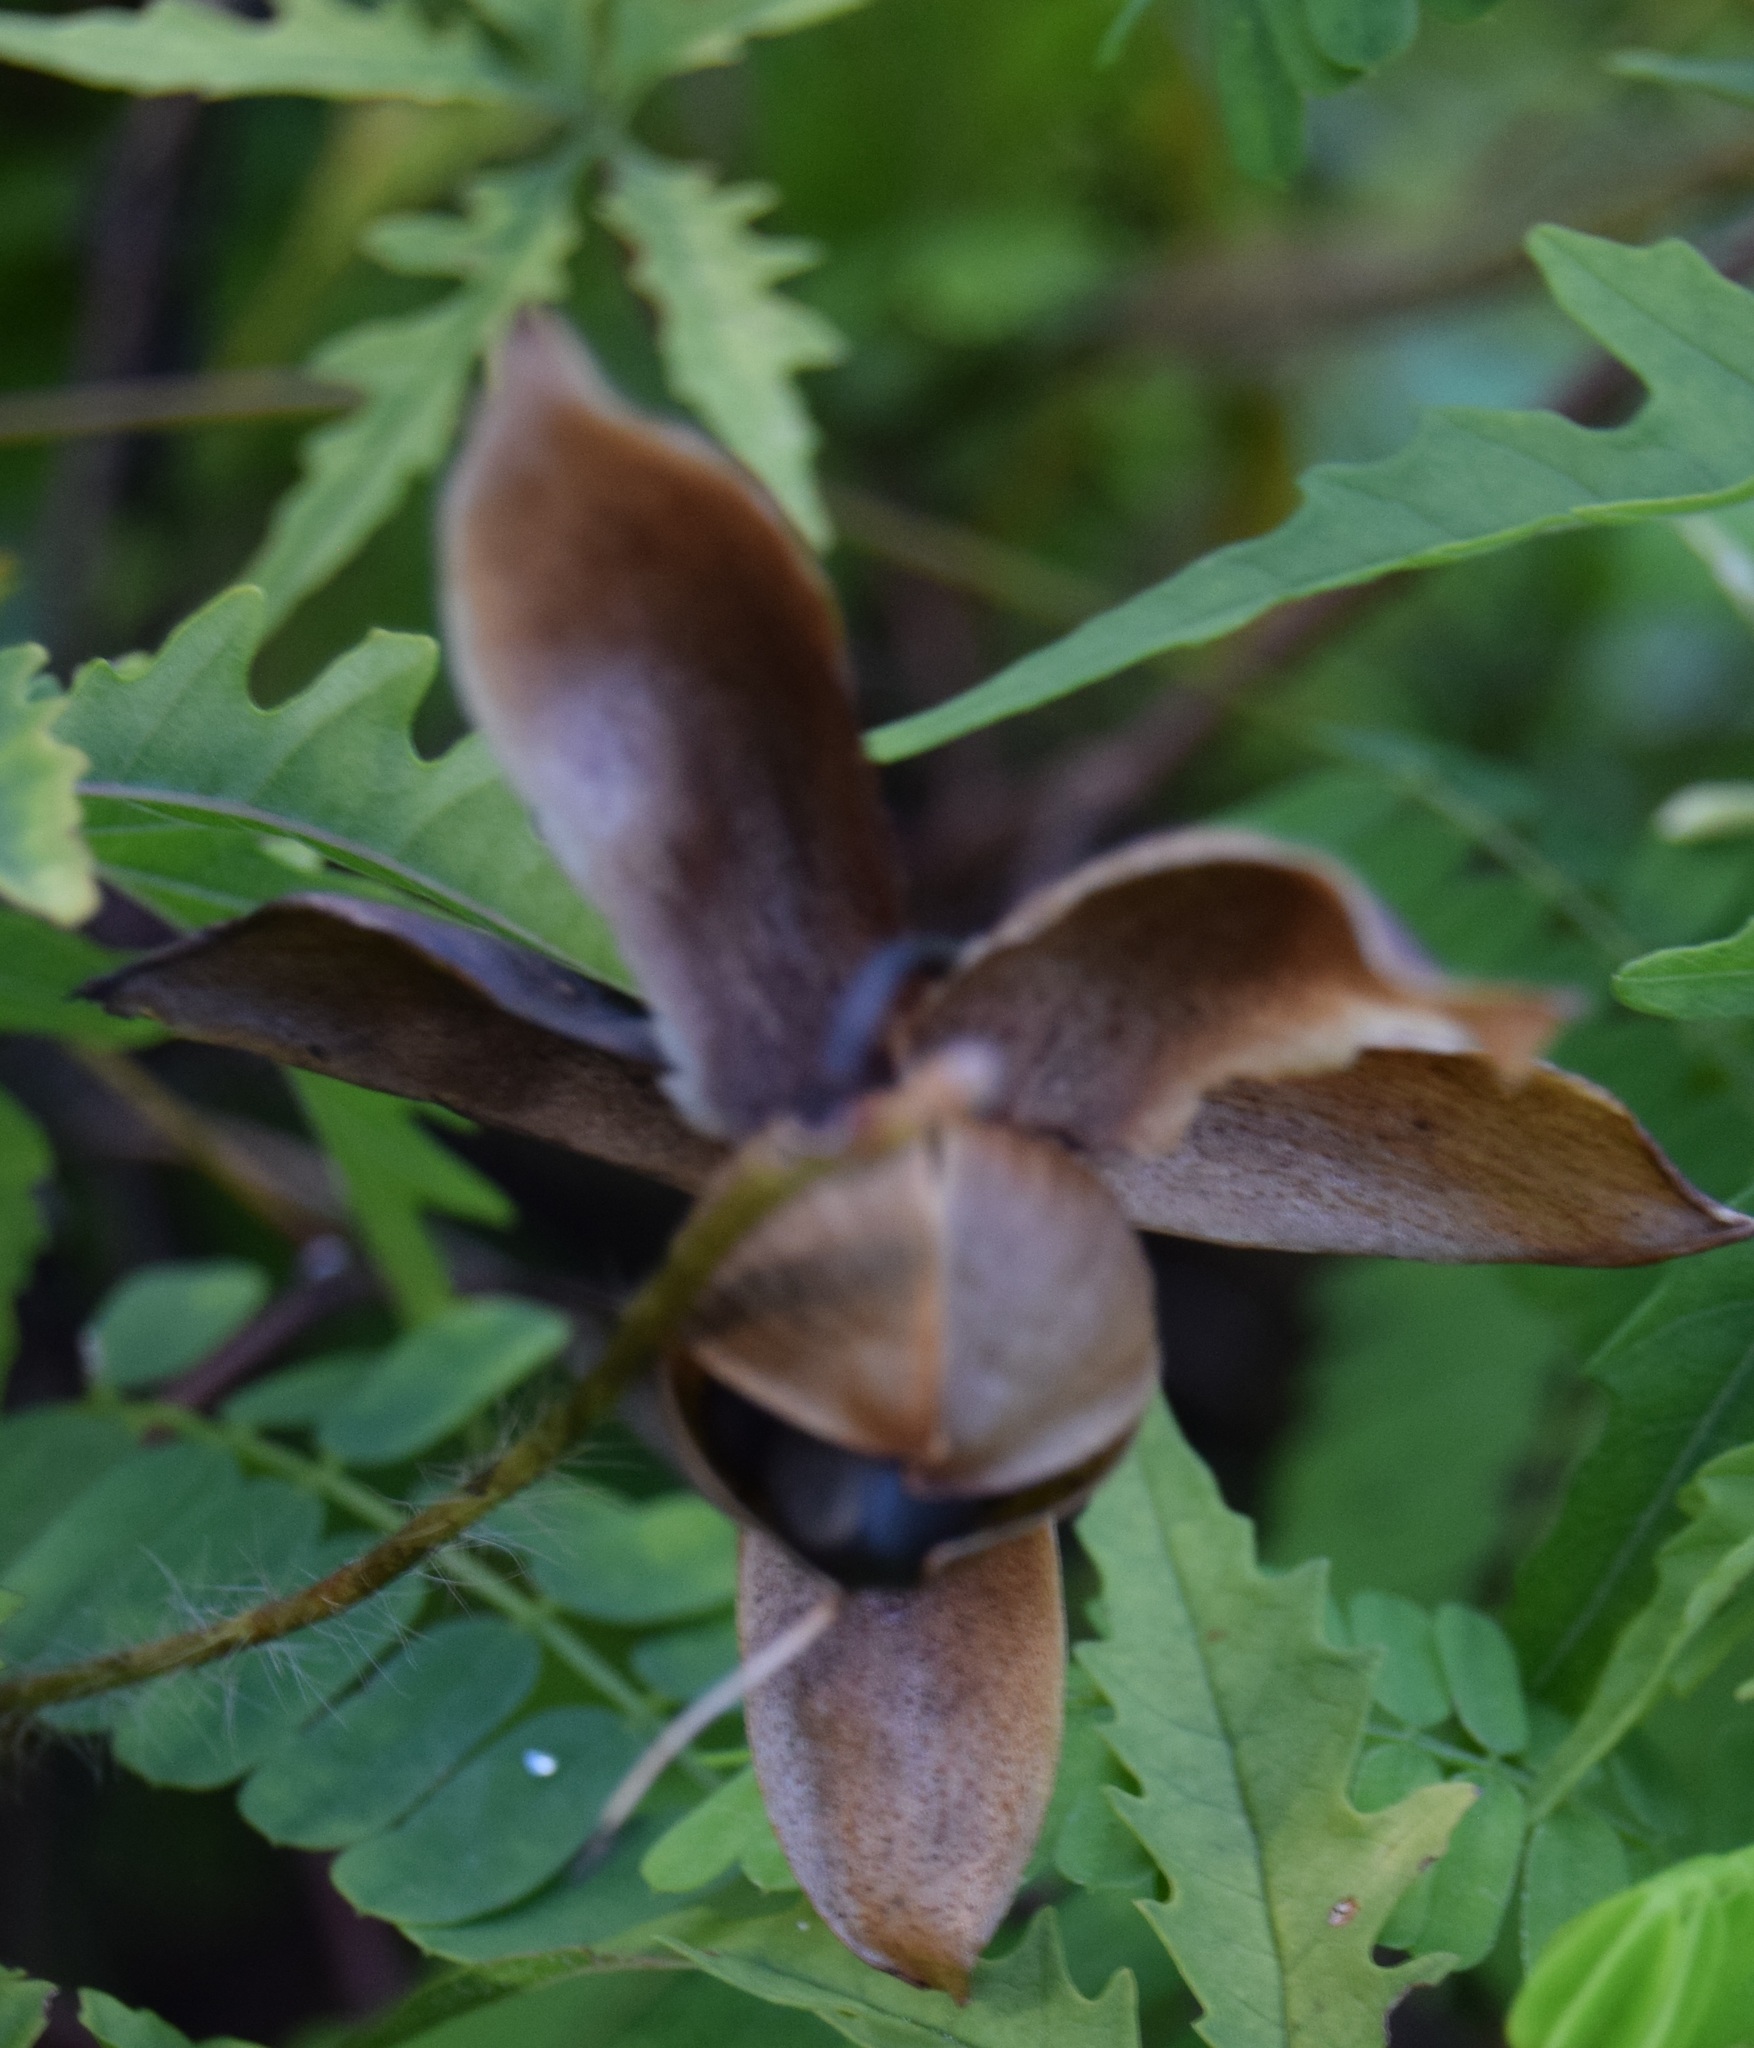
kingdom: Plantae
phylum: Tracheophyta
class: Magnoliopsida
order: Solanales
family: Convolvulaceae
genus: Distimake
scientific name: Distimake dissectus
